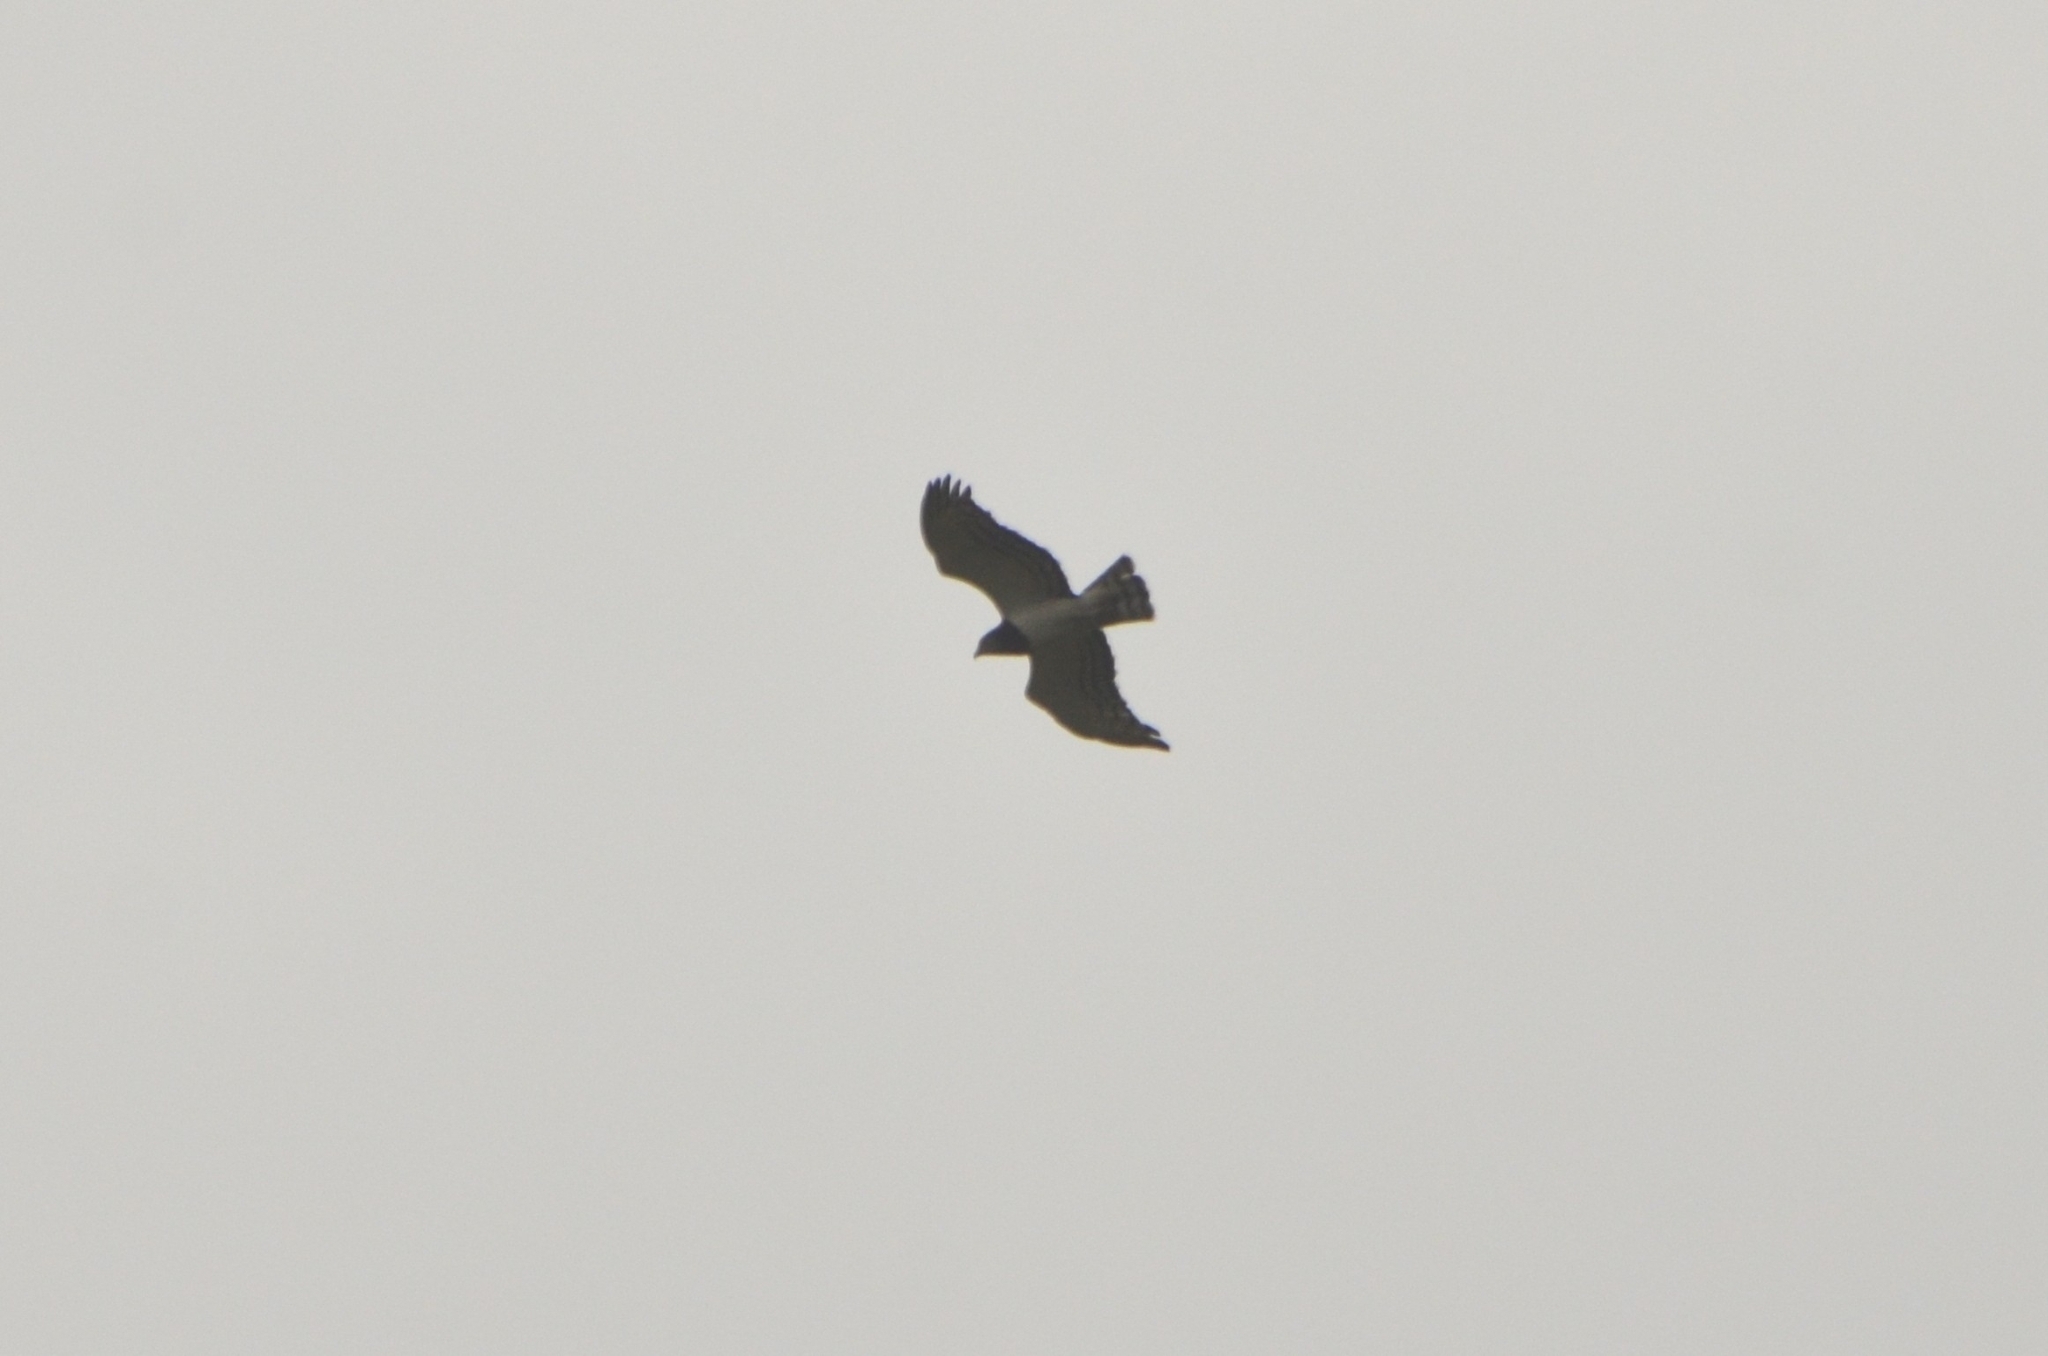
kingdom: Animalia
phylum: Chordata
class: Aves
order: Accipitriformes
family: Accipitridae
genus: Circaetus
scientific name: Circaetus pectoralis
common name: Black-chested snake eagle
